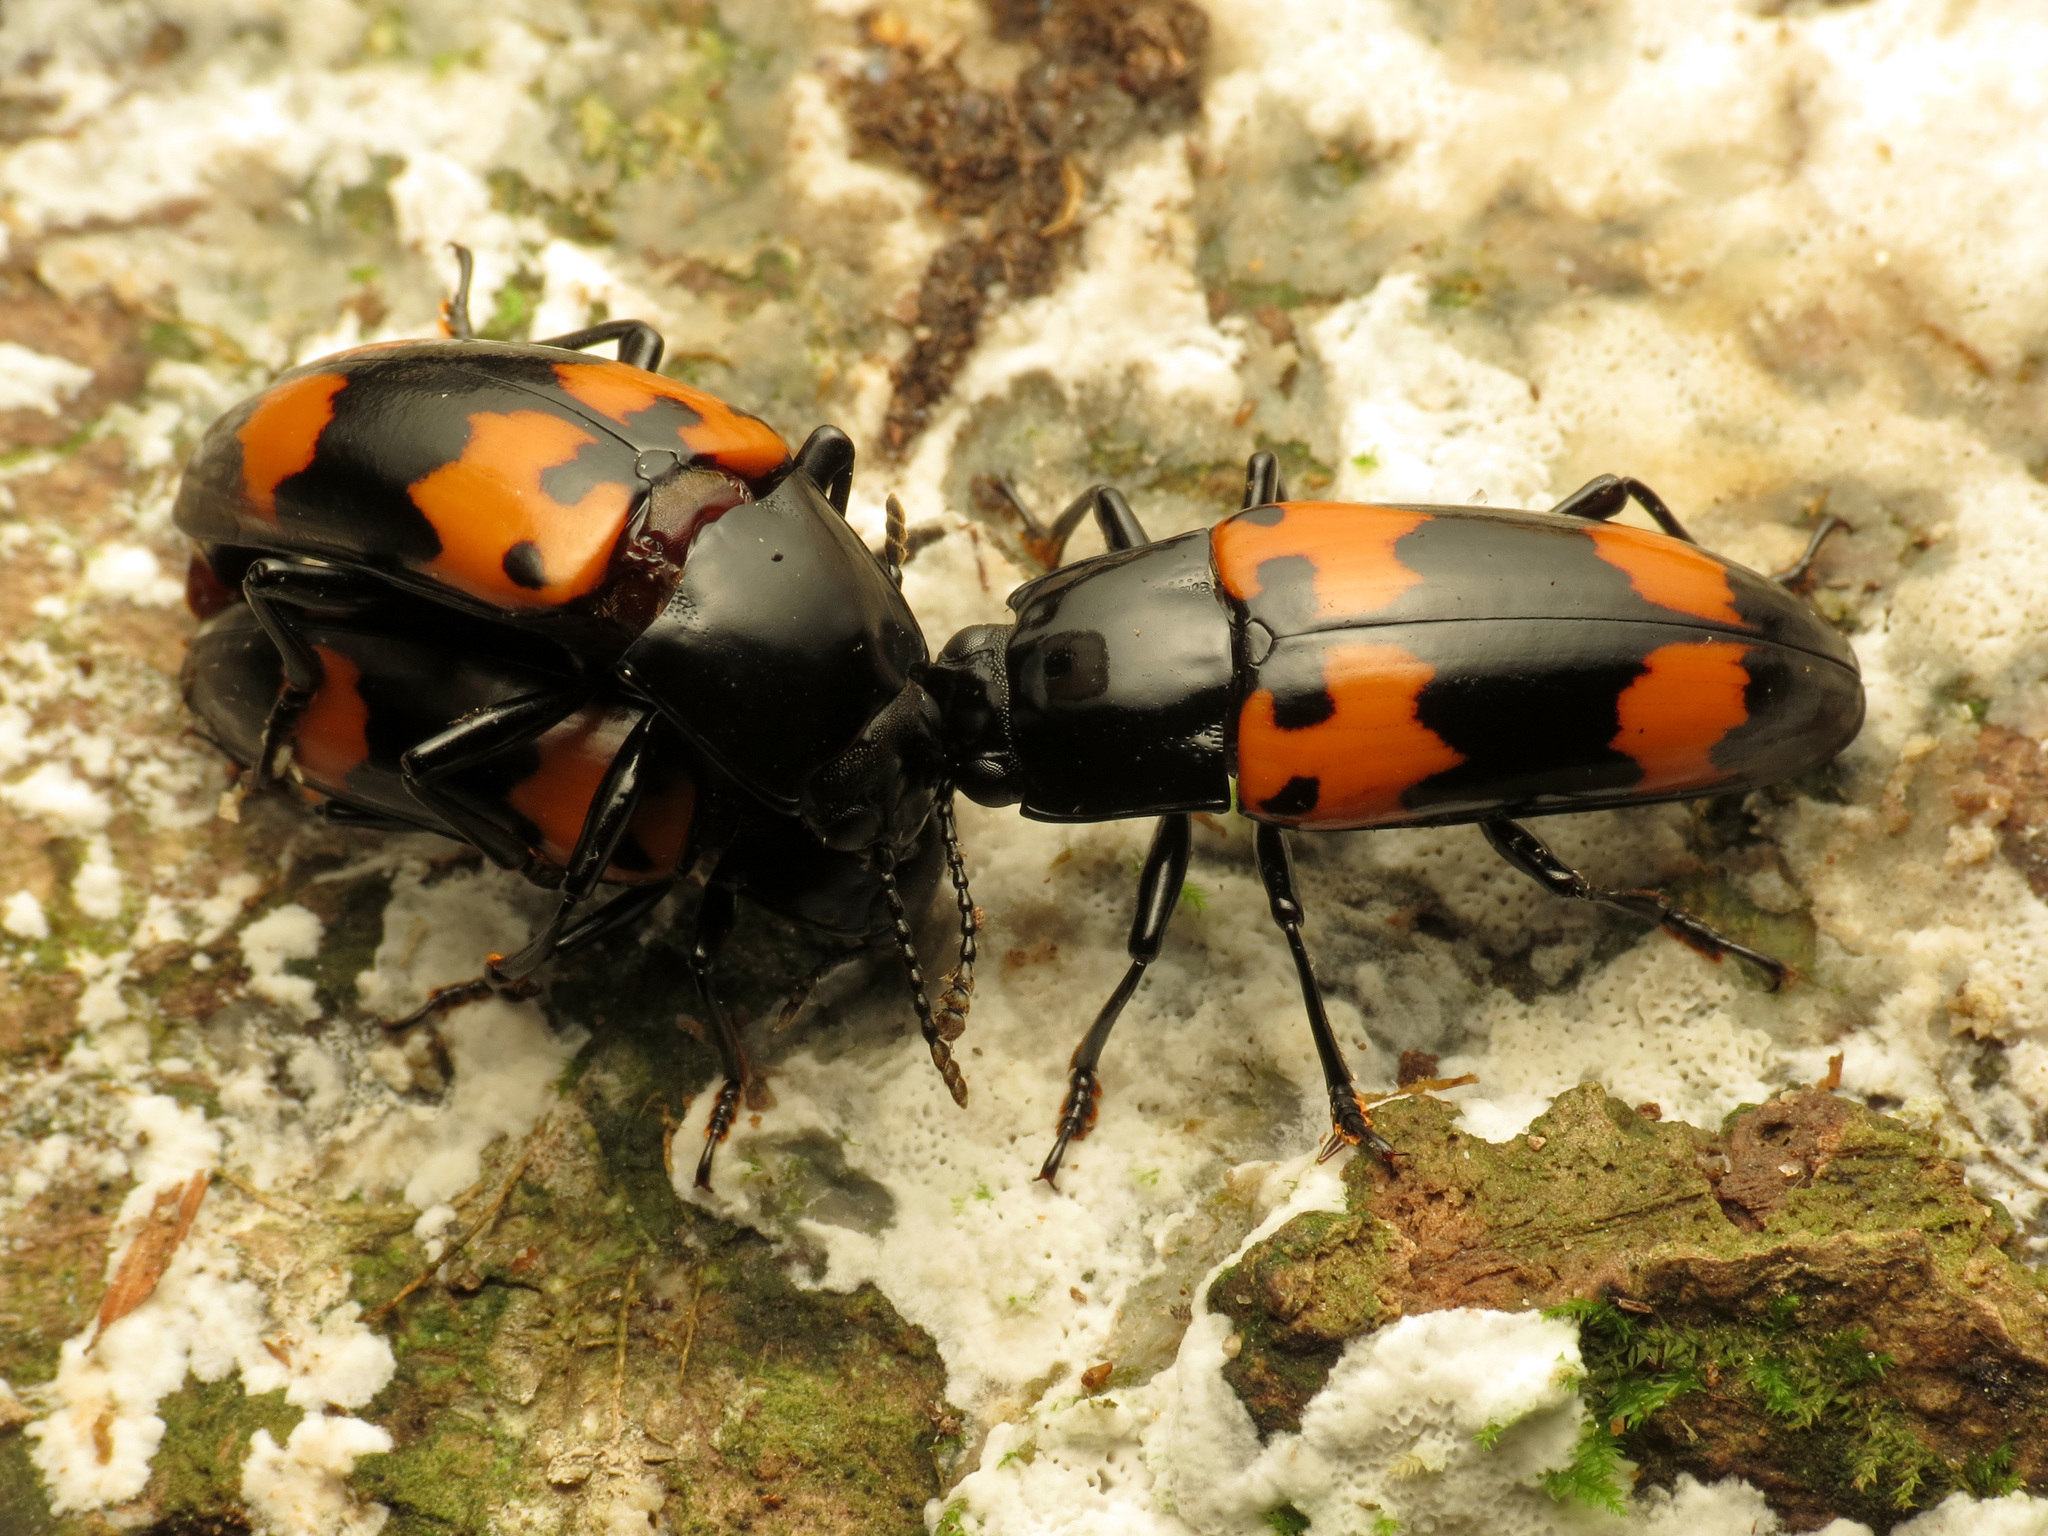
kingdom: Animalia
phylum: Arthropoda
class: Insecta
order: Coleoptera
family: Erotylidae
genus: Megalodacne
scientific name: Megalodacne heros
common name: Pleasing fungus beetle
